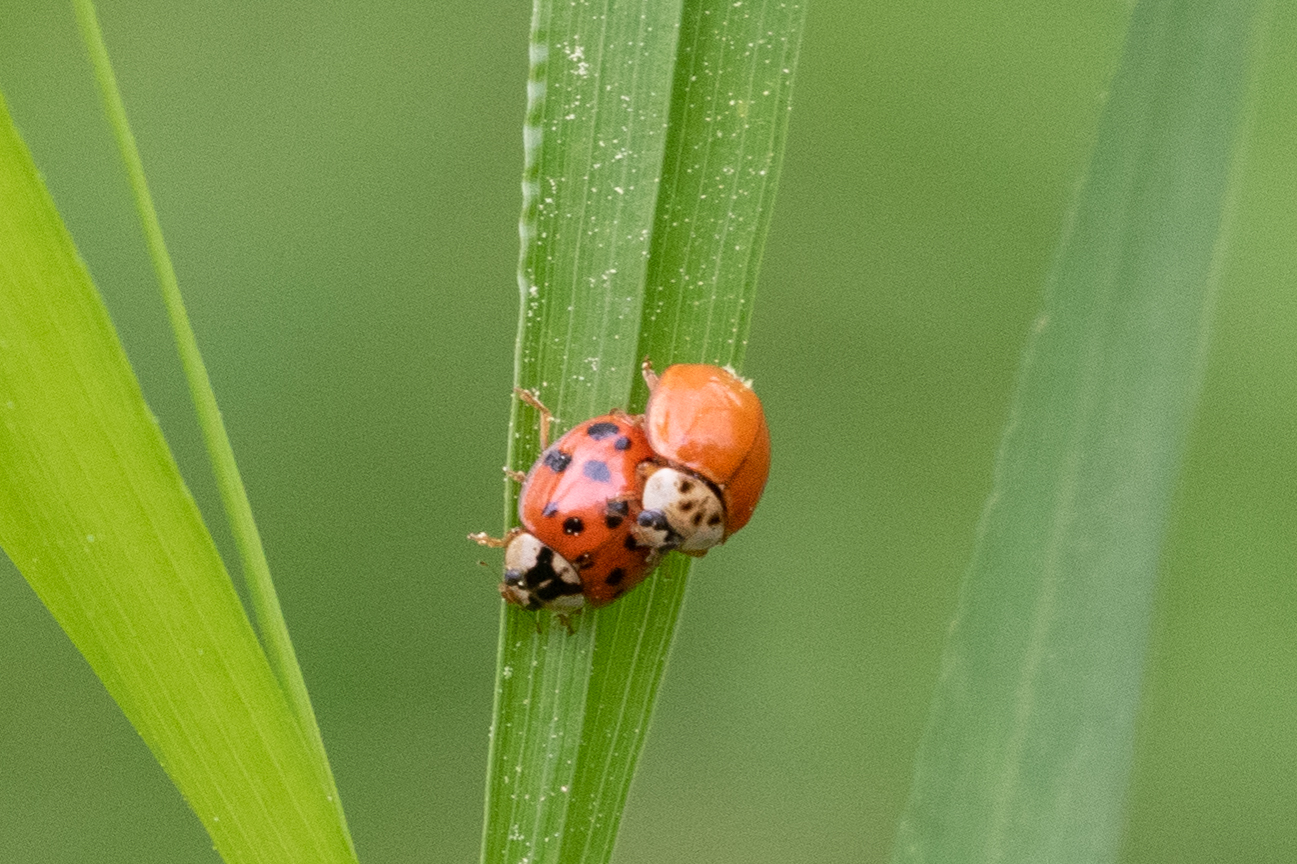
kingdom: Animalia
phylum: Arthropoda
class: Insecta
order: Coleoptera
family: Coccinellidae
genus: Harmonia
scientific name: Harmonia axyridis
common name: Harlequin ladybird
